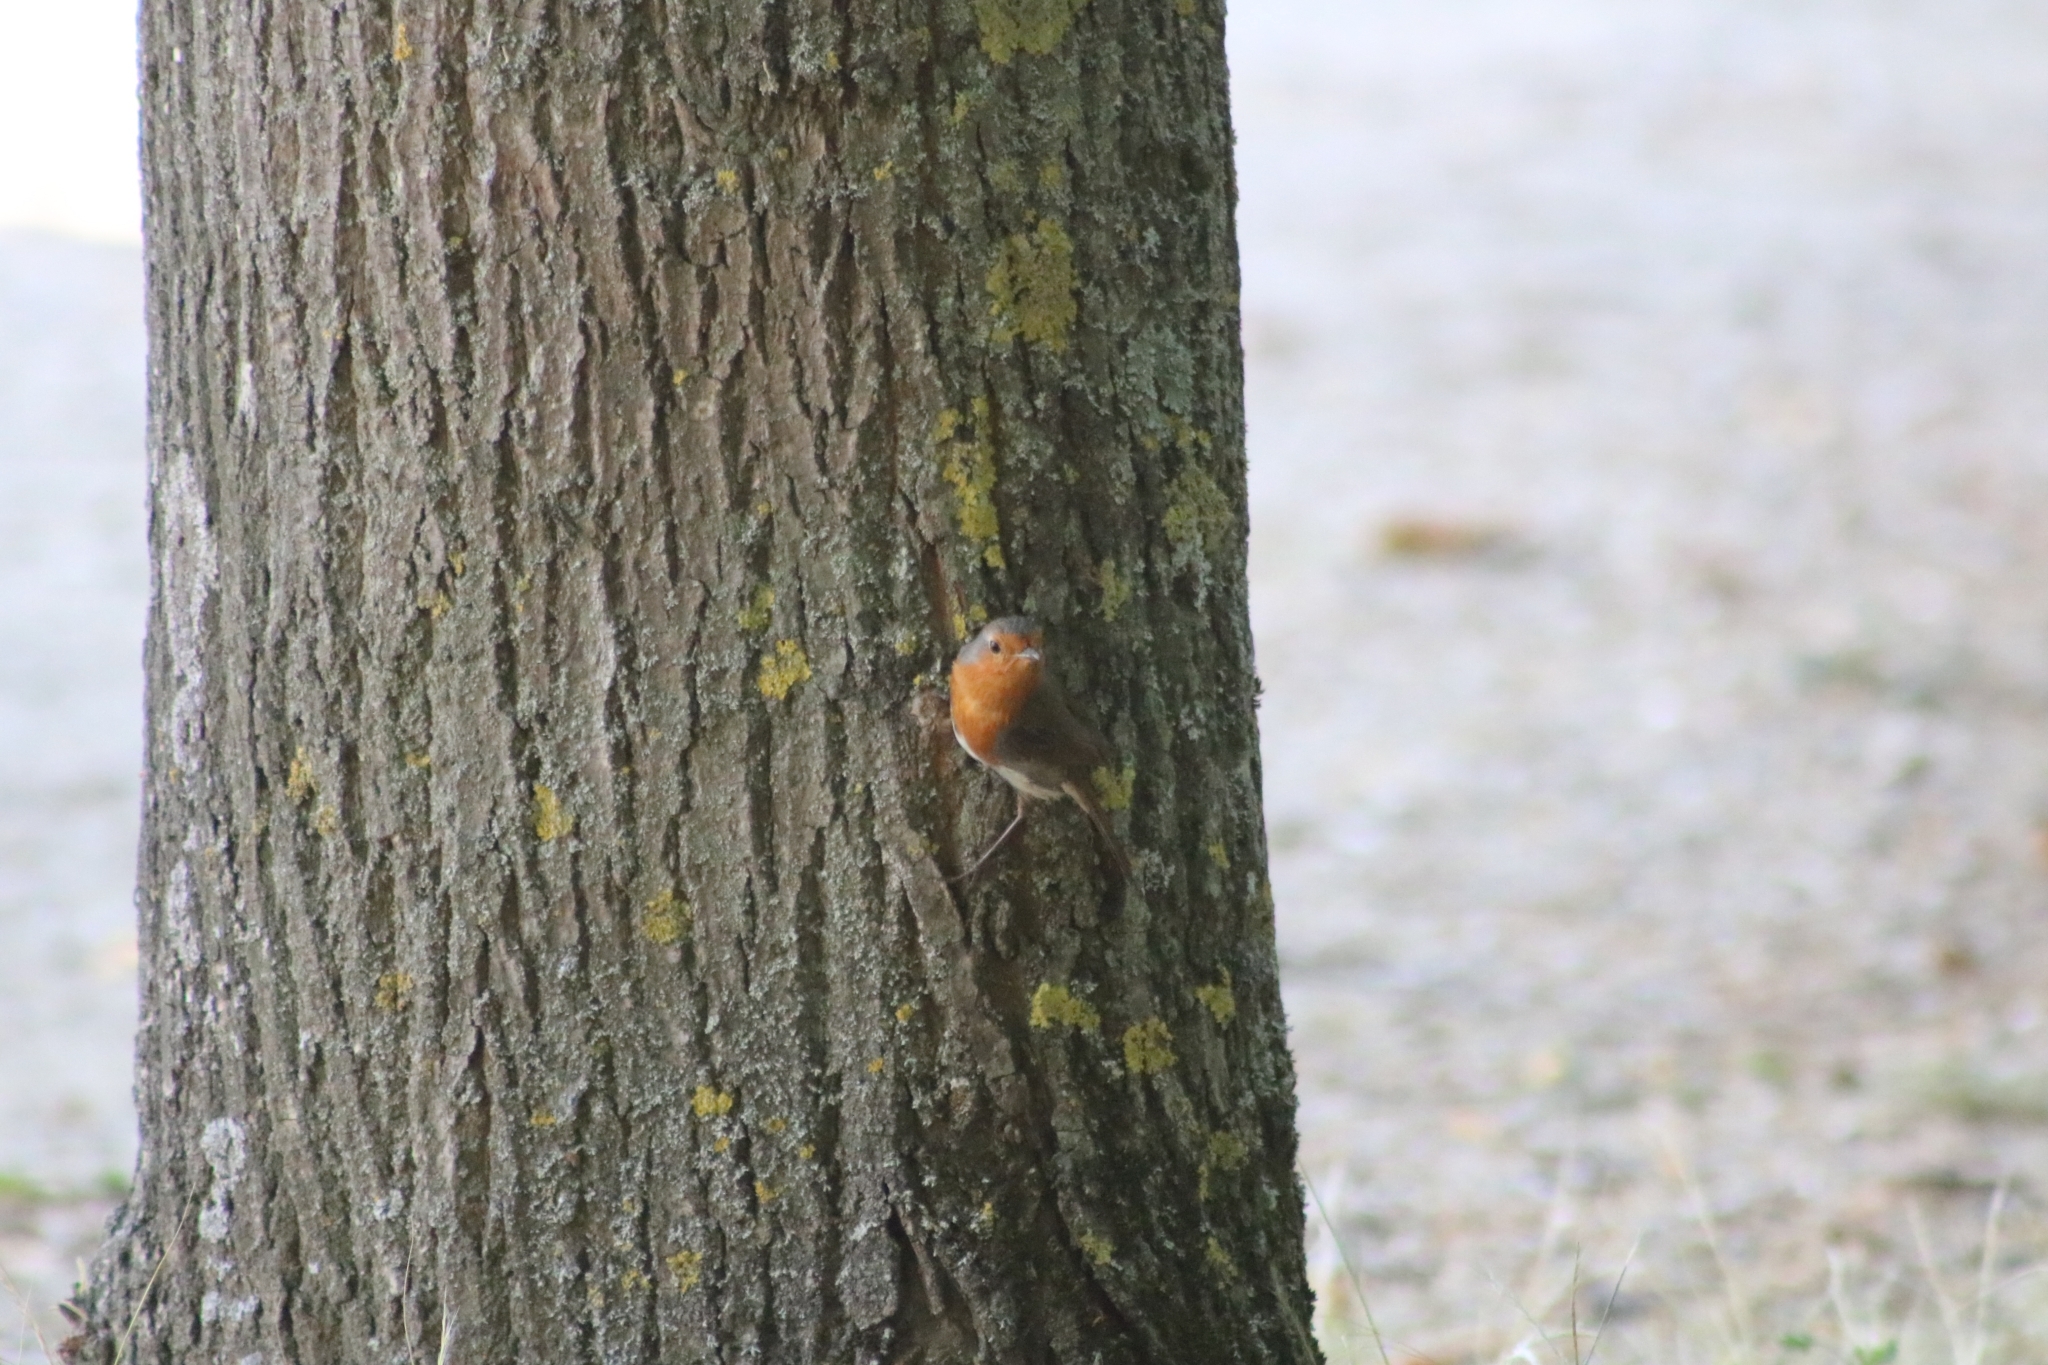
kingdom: Animalia
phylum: Chordata
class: Aves
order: Passeriformes
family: Muscicapidae
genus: Erithacus
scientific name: Erithacus rubecula
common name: European robin
